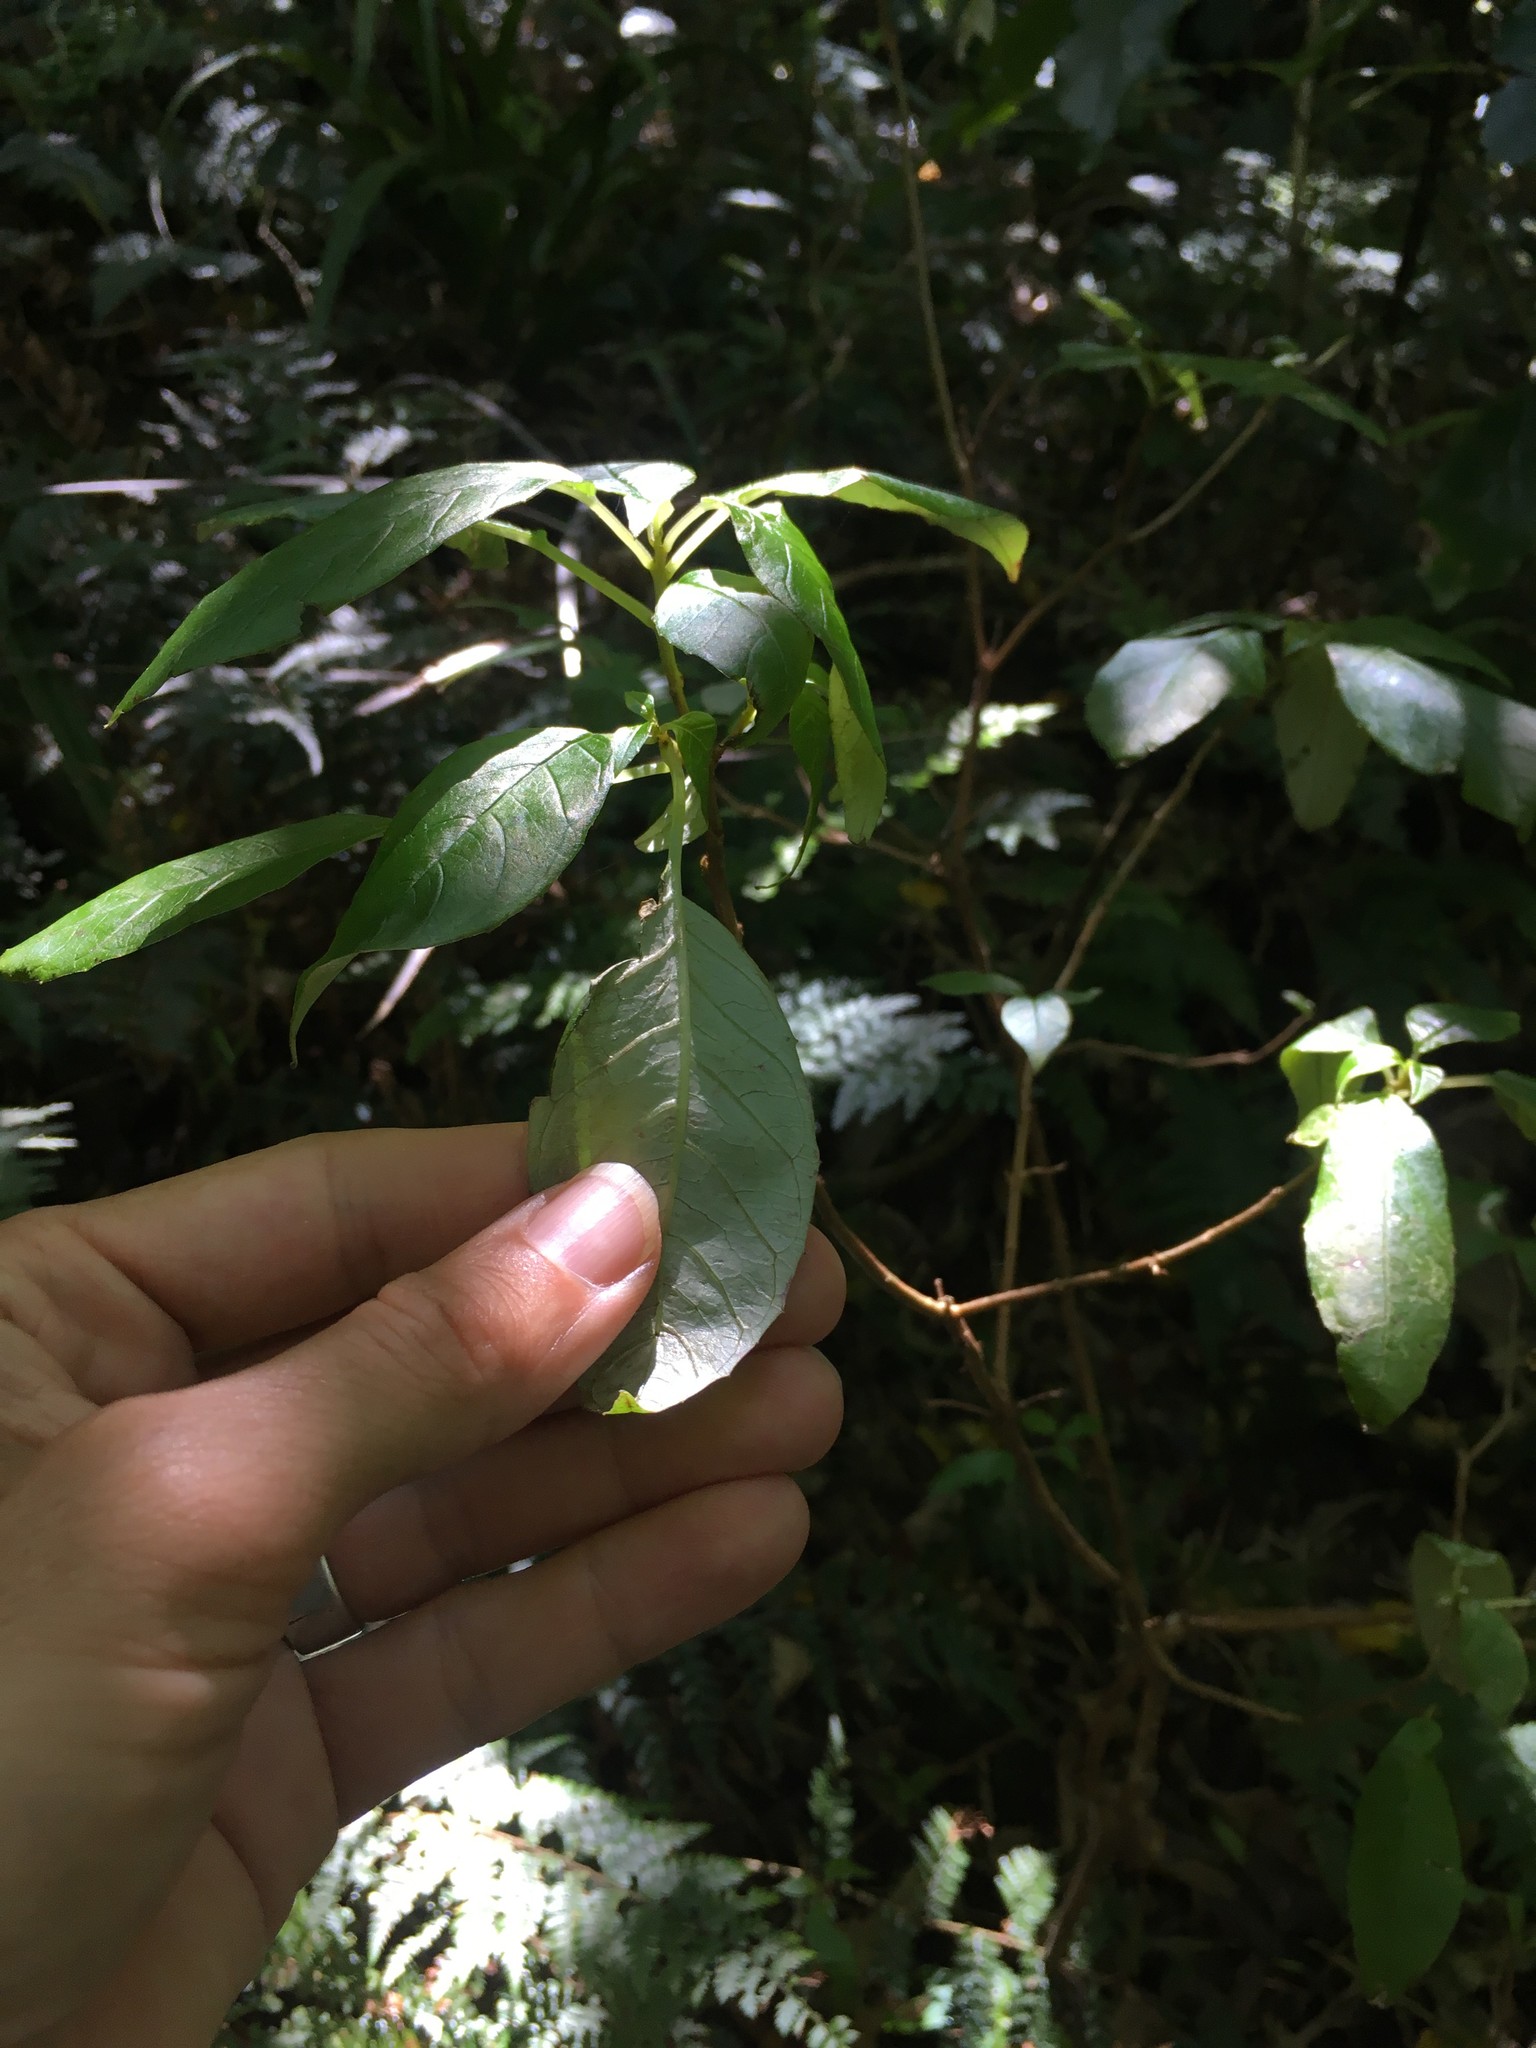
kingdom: Plantae
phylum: Tracheophyta
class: Magnoliopsida
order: Myrtales
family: Onagraceae
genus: Fuchsia
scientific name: Fuchsia excorticata
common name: Tree fuchsia
